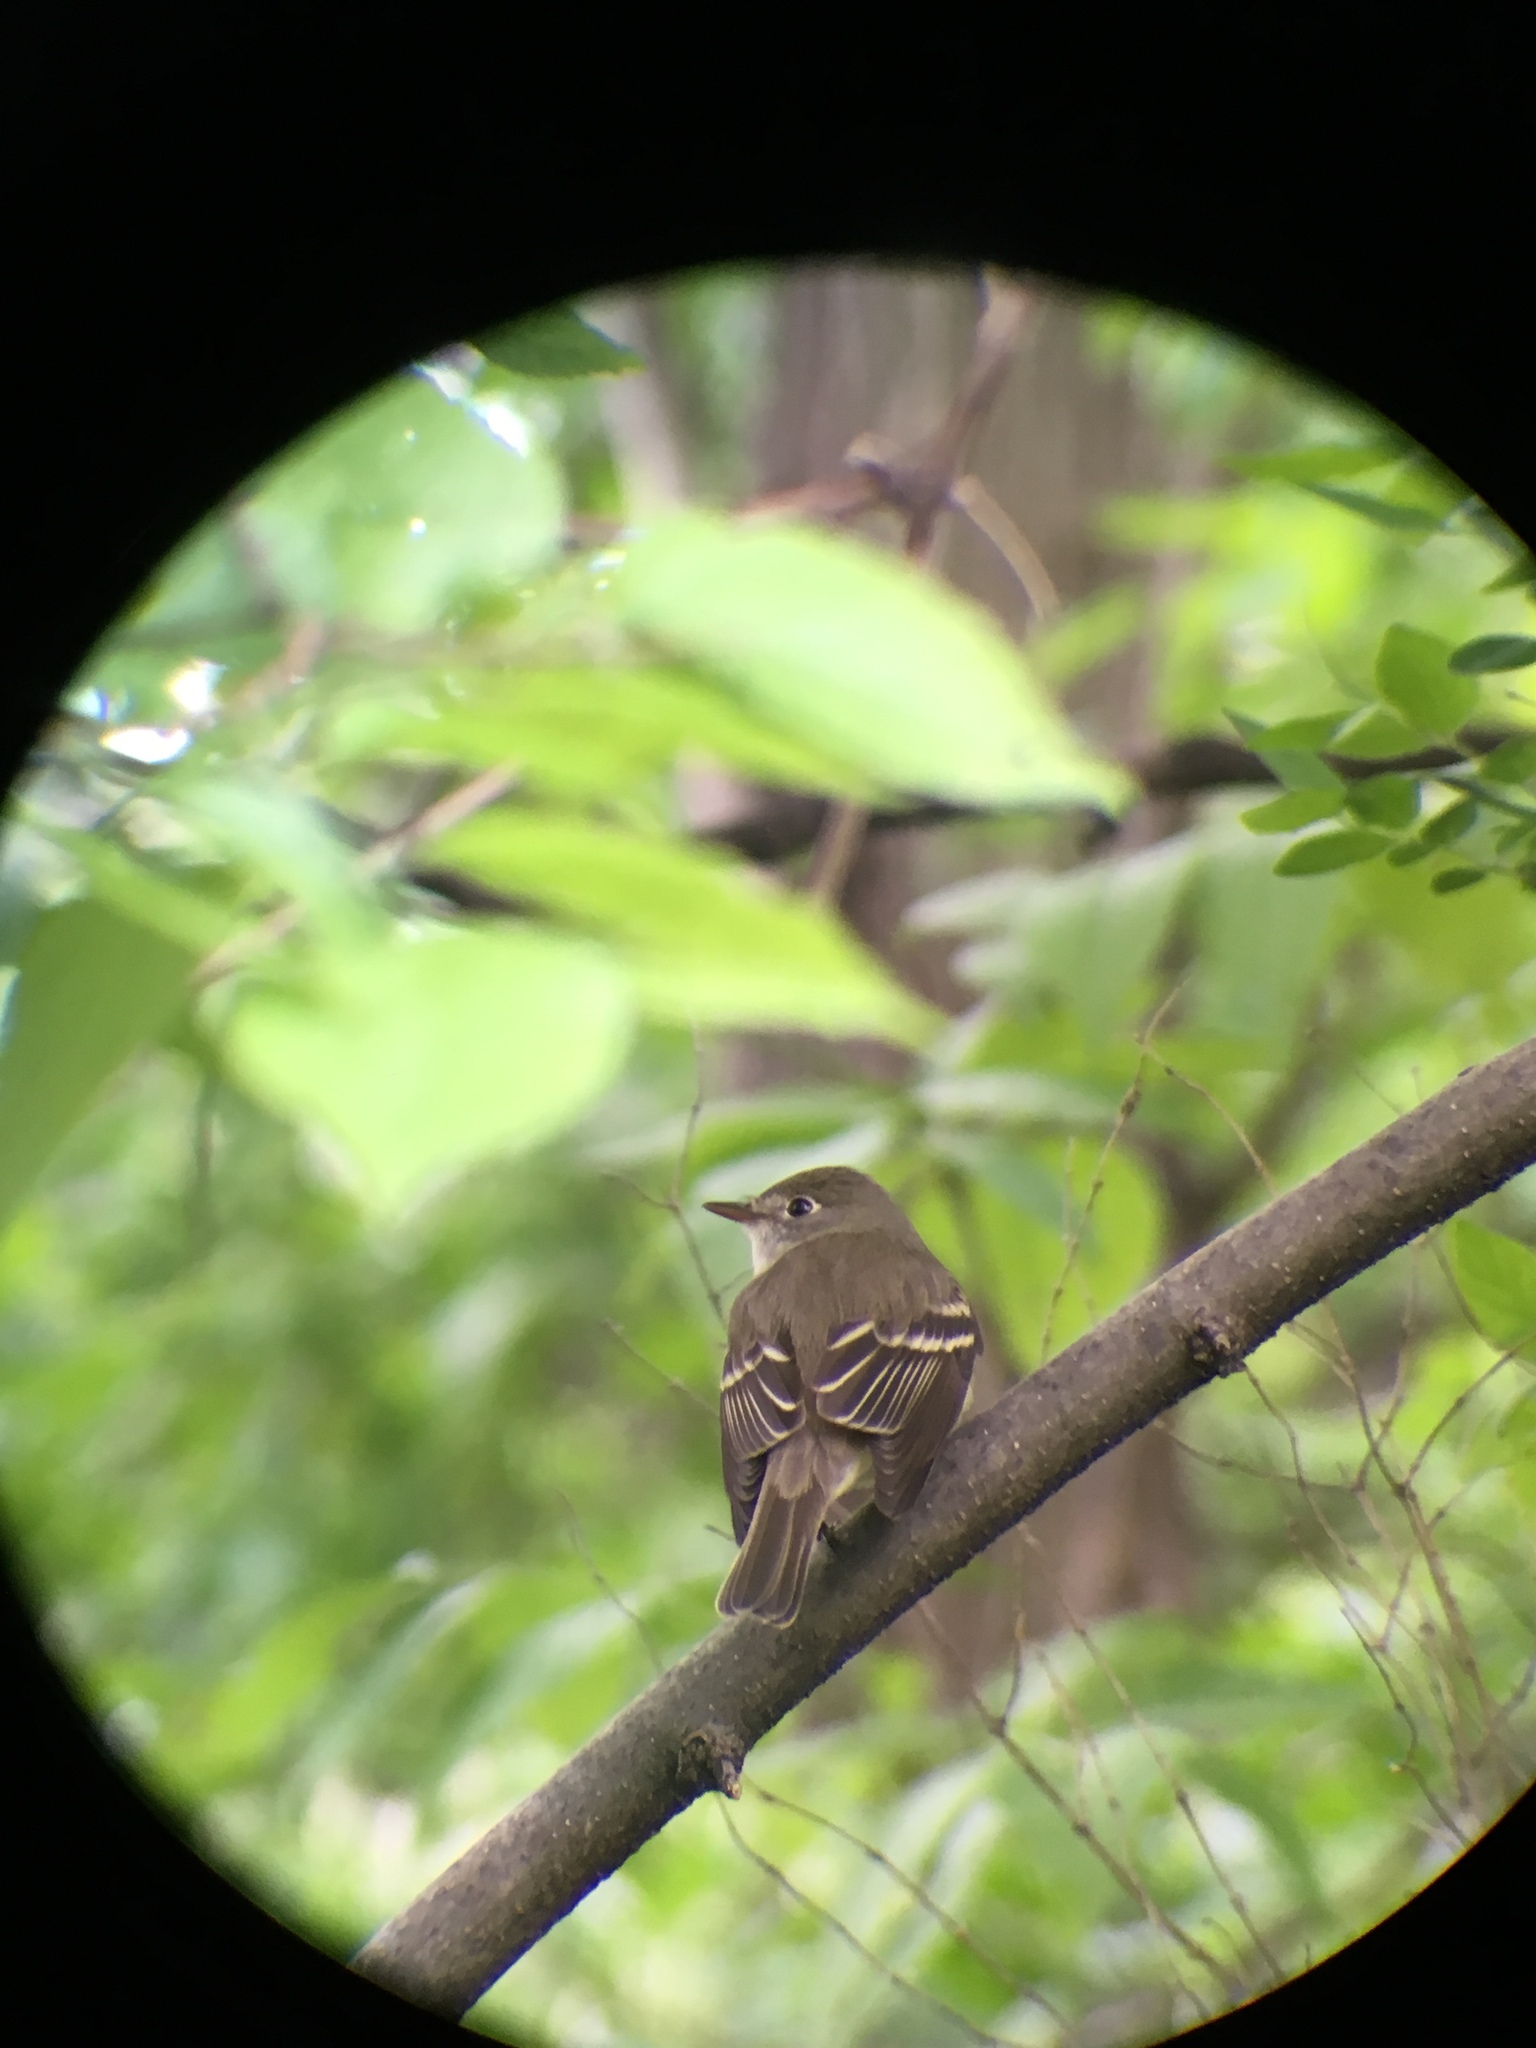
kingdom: Animalia
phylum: Chordata
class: Aves
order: Passeriformes
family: Tyrannidae
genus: Empidonax
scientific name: Empidonax alnorum
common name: Alder flycatcher
